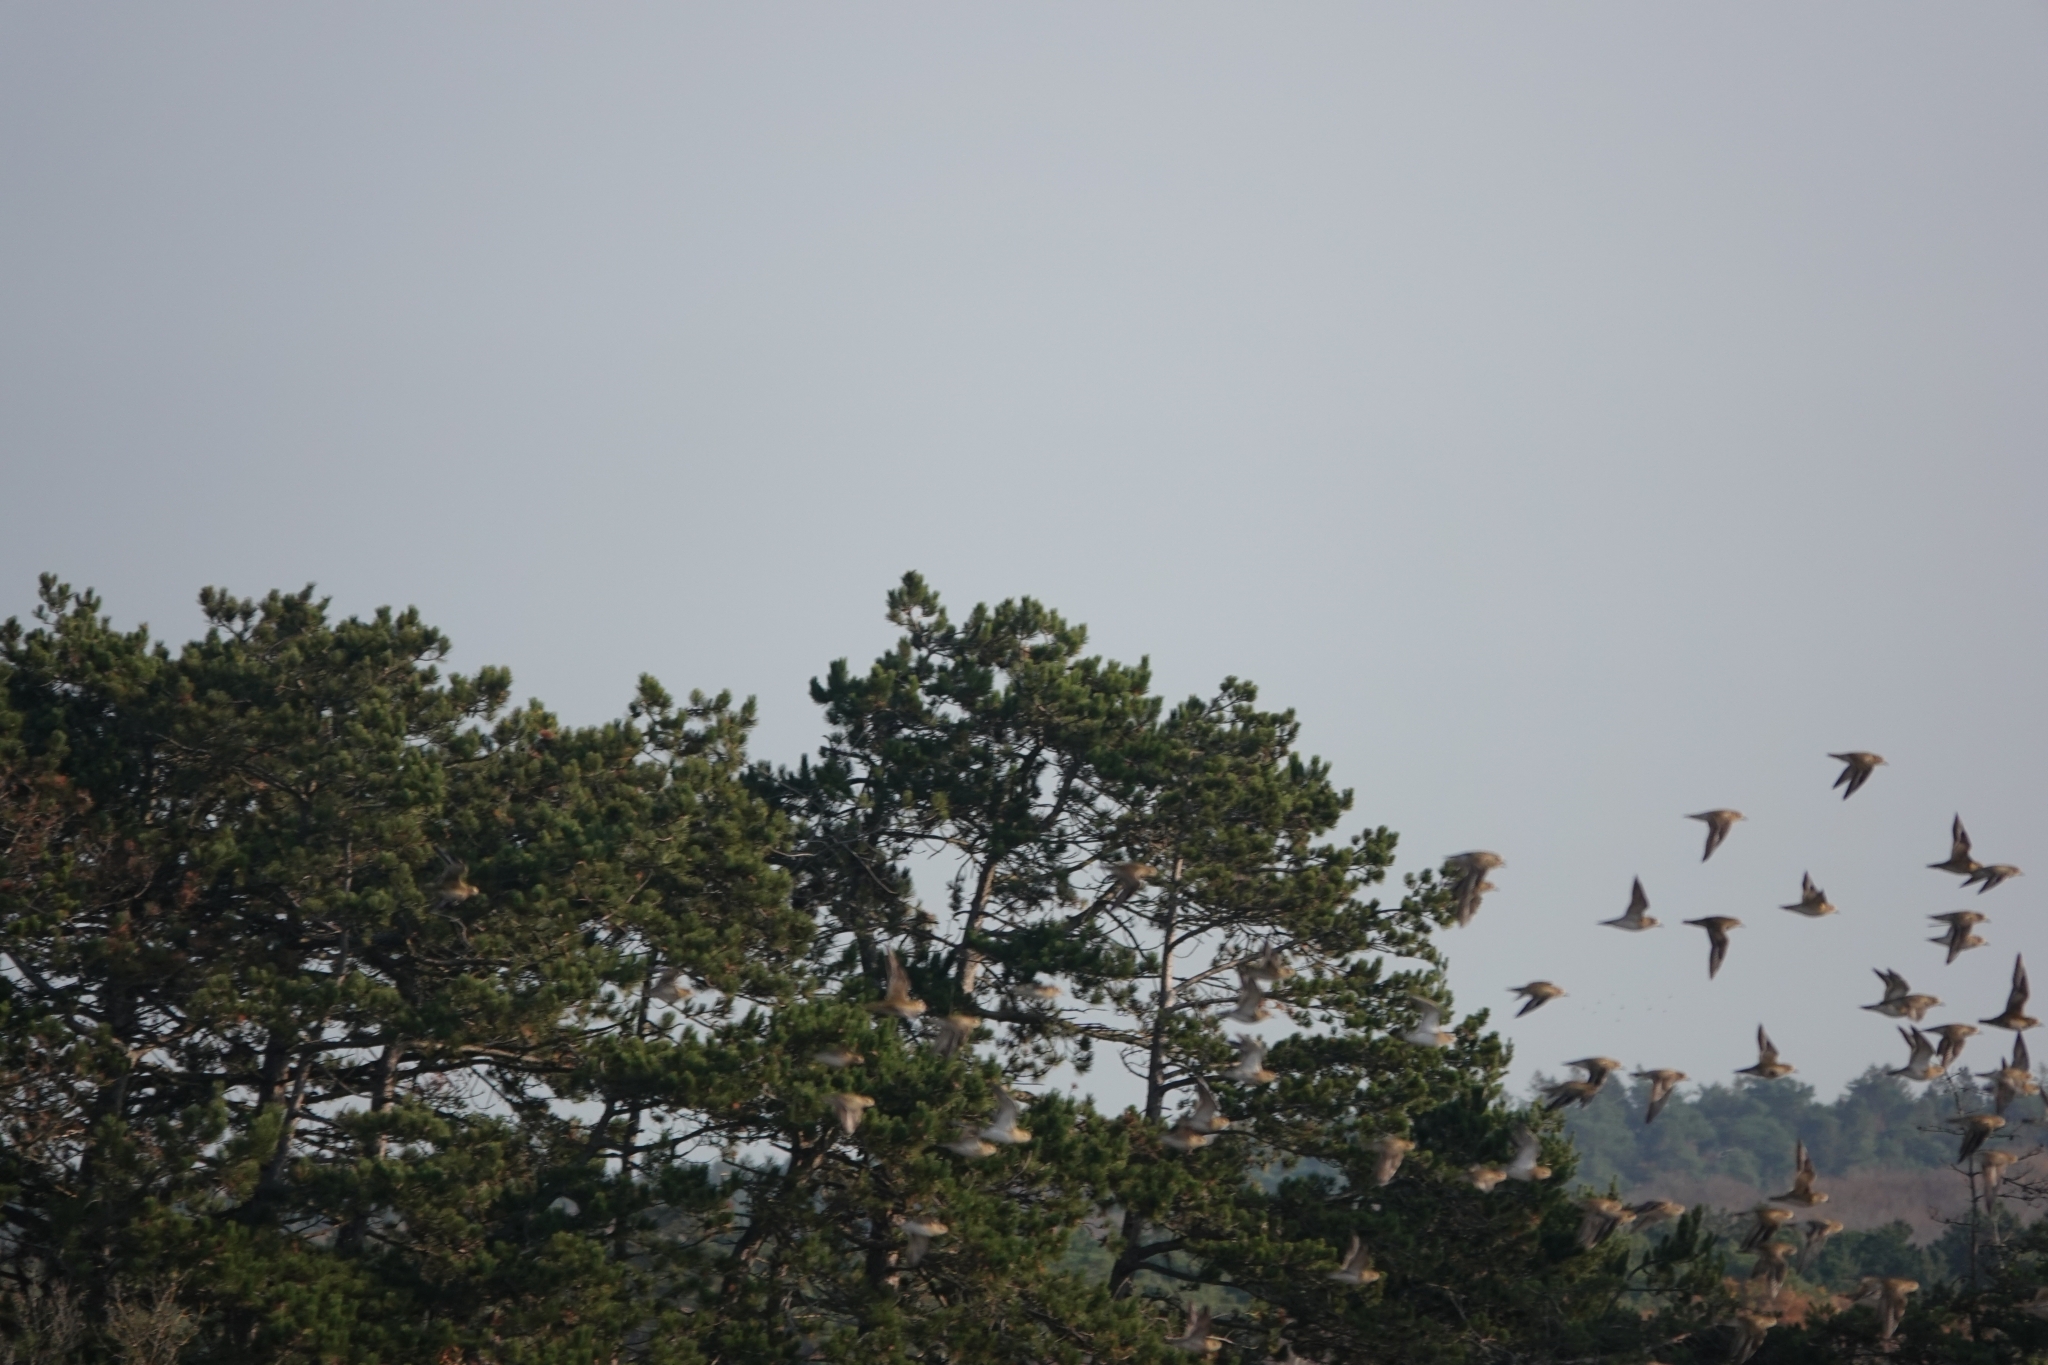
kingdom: Animalia
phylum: Chordata
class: Aves
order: Charadriiformes
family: Charadriidae
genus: Pluvialis
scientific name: Pluvialis apricaria
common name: European golden plover
